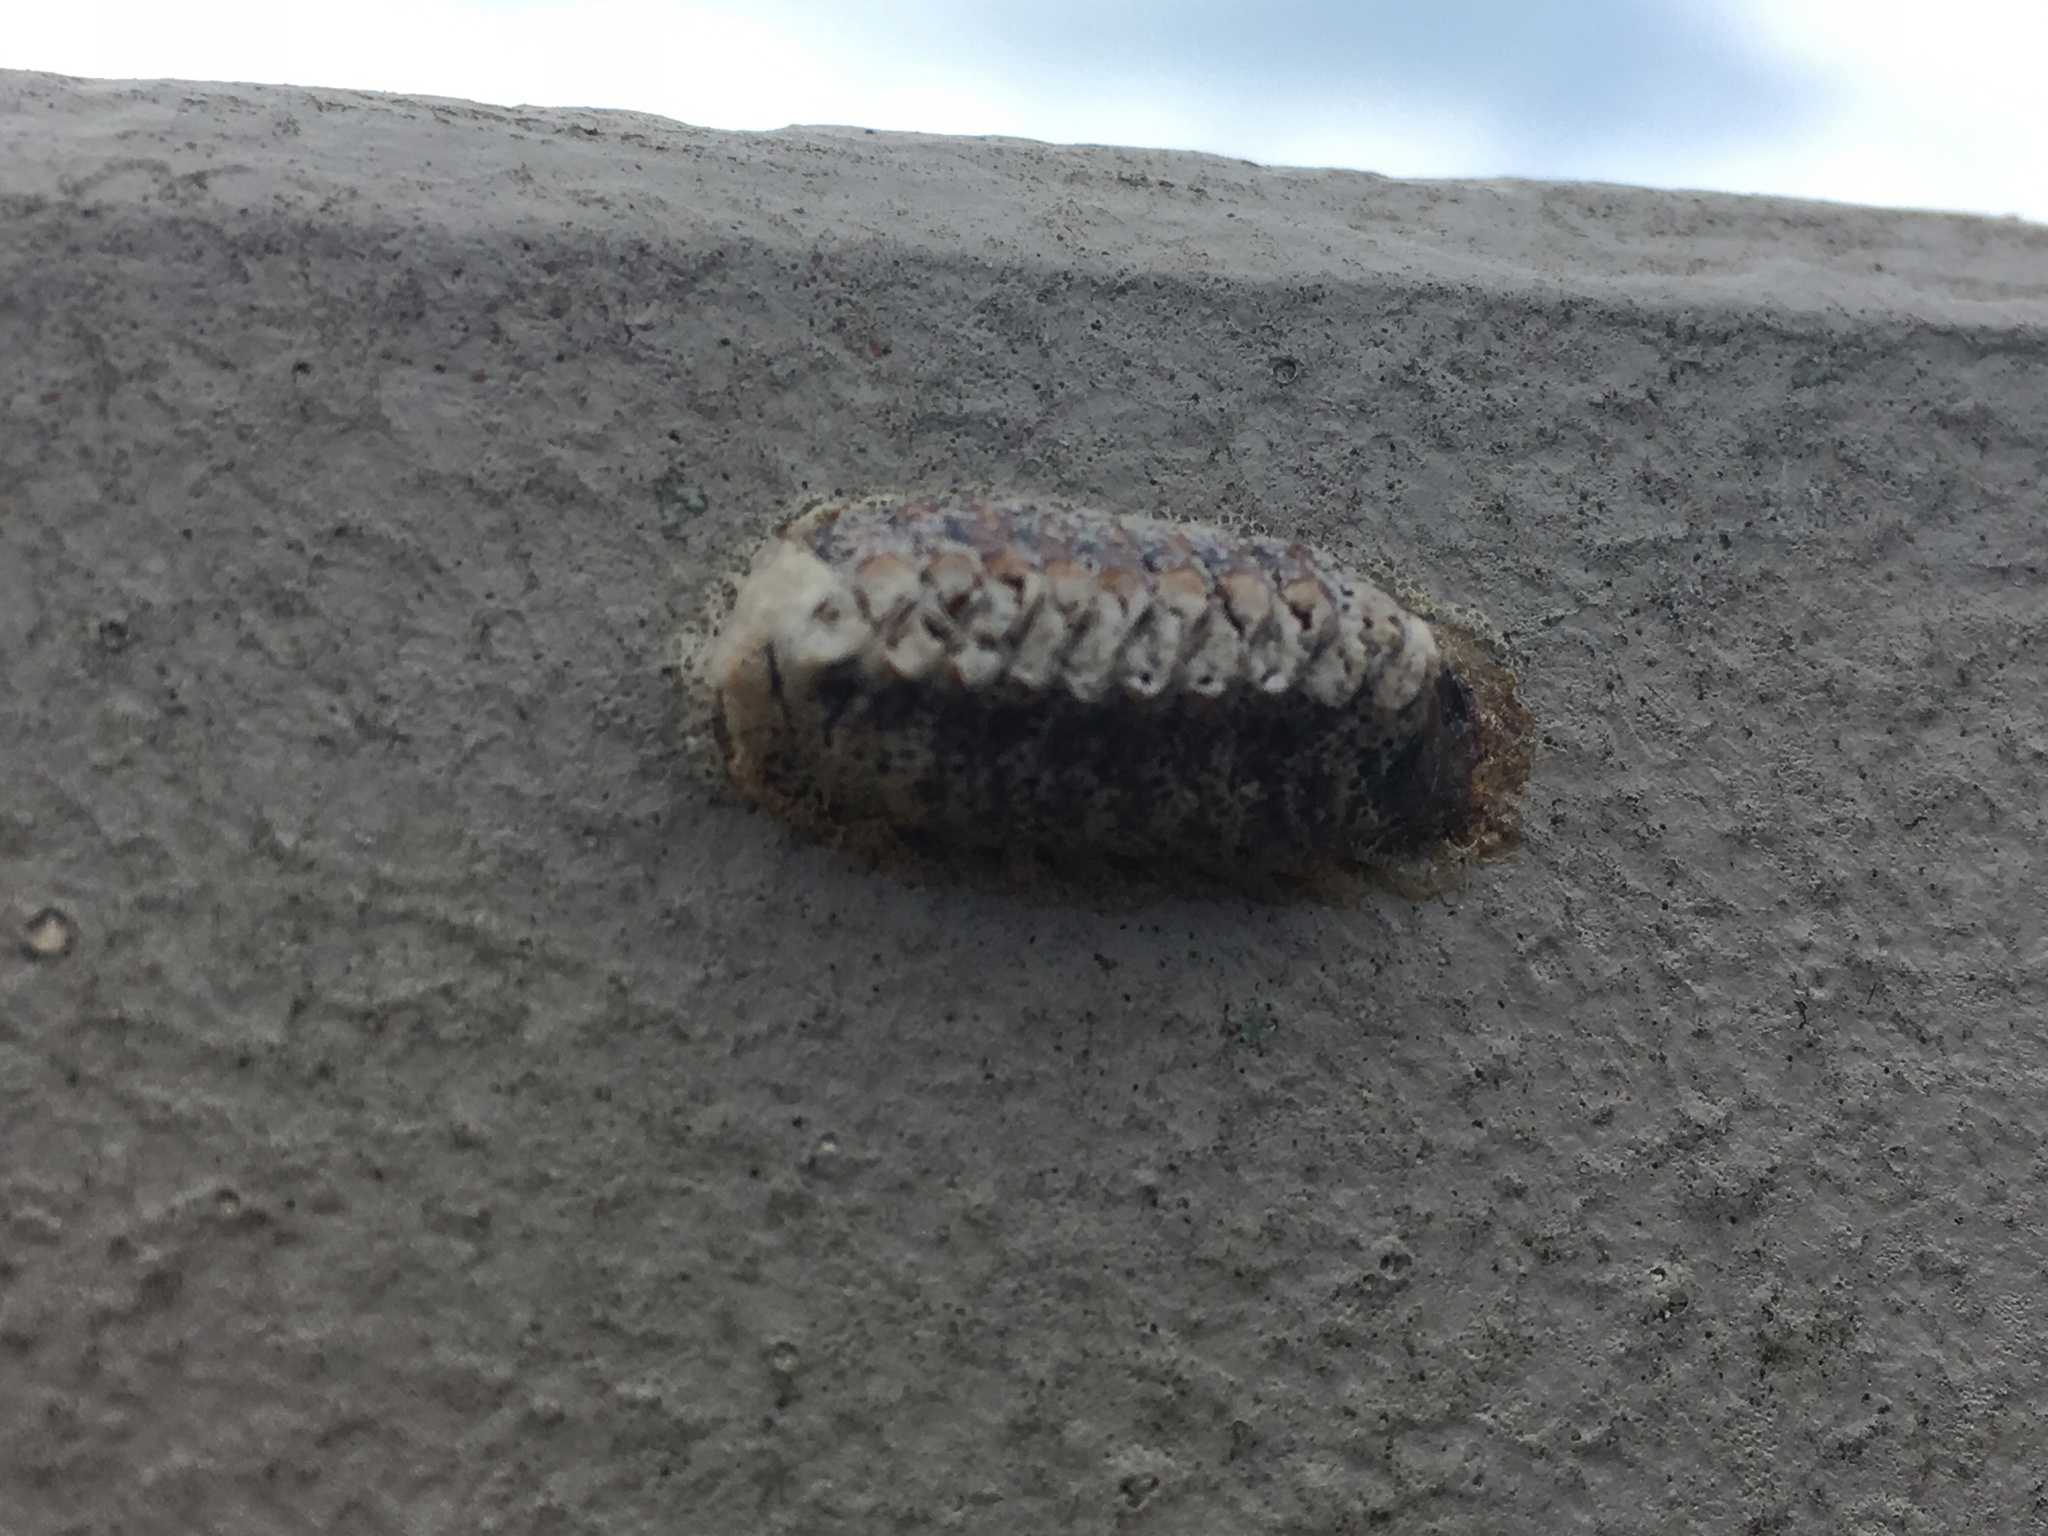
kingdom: Animalia
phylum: Arthropoda
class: Insecta
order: Mantodea
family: Mantidae
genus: Orthodera
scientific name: Orthodera novaezealandiae
